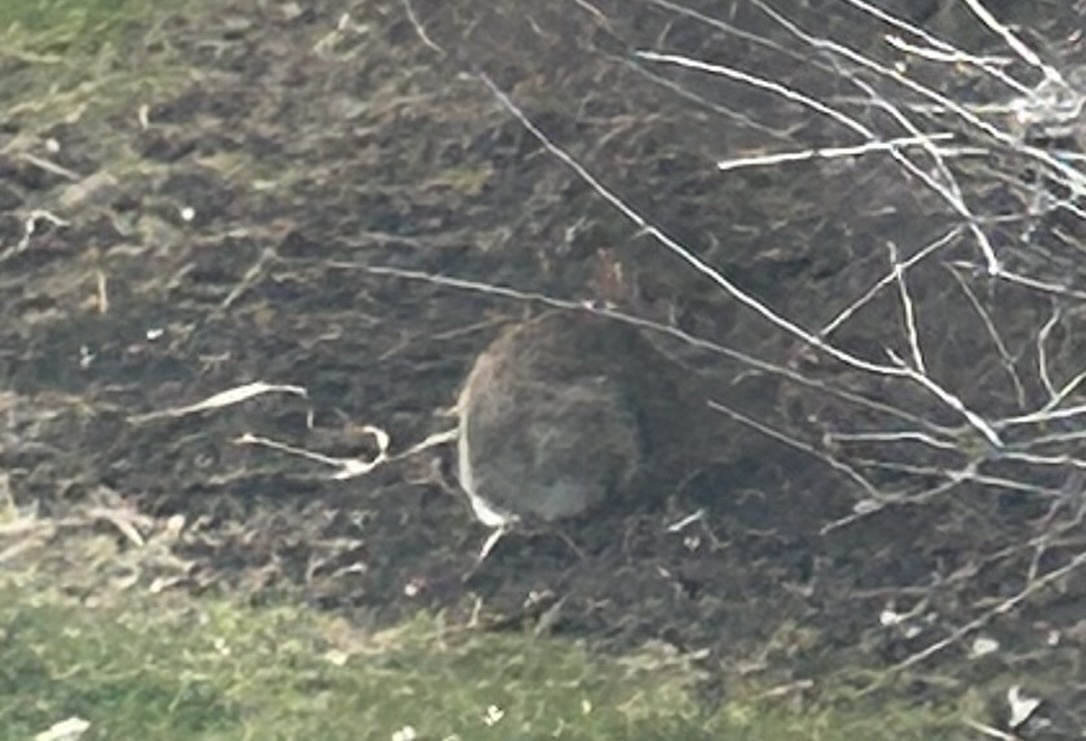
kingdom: Animalia
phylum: Chordata
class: Mammalia
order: Lagomorpha
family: Leporidae
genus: Sylvilagus
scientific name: Sylvilagus floridanus
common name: Eastern cottontail
